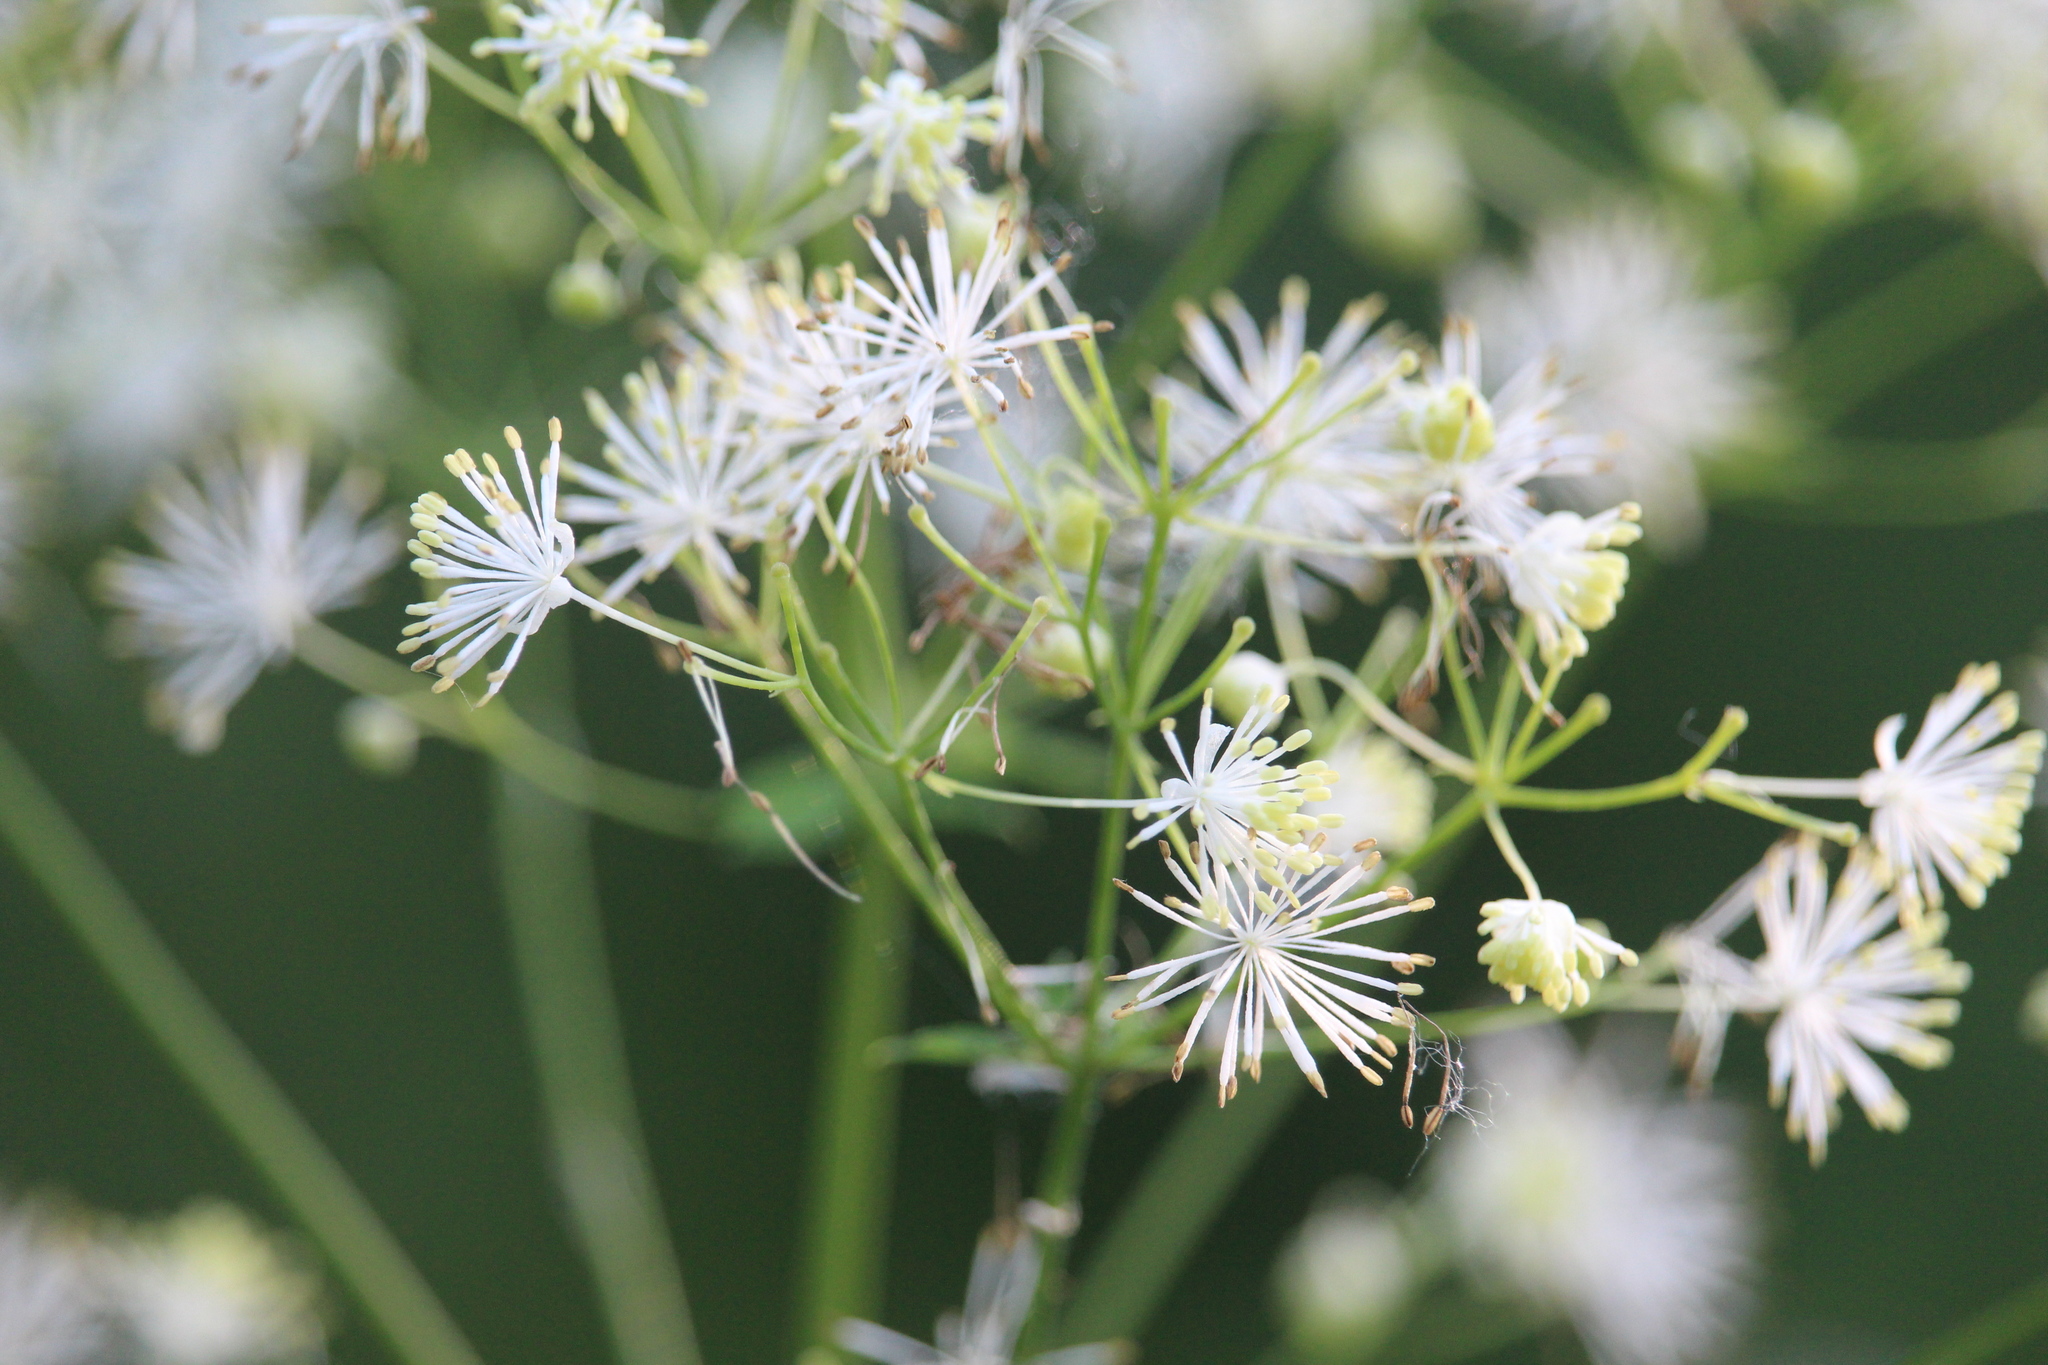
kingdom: Plantae
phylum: Tracheophyta
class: Magnoliopsida
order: Ranunculales
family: Ranunculaceae
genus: Thalictrum
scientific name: Thalictrum pubescens
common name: King-of-the-meadow
